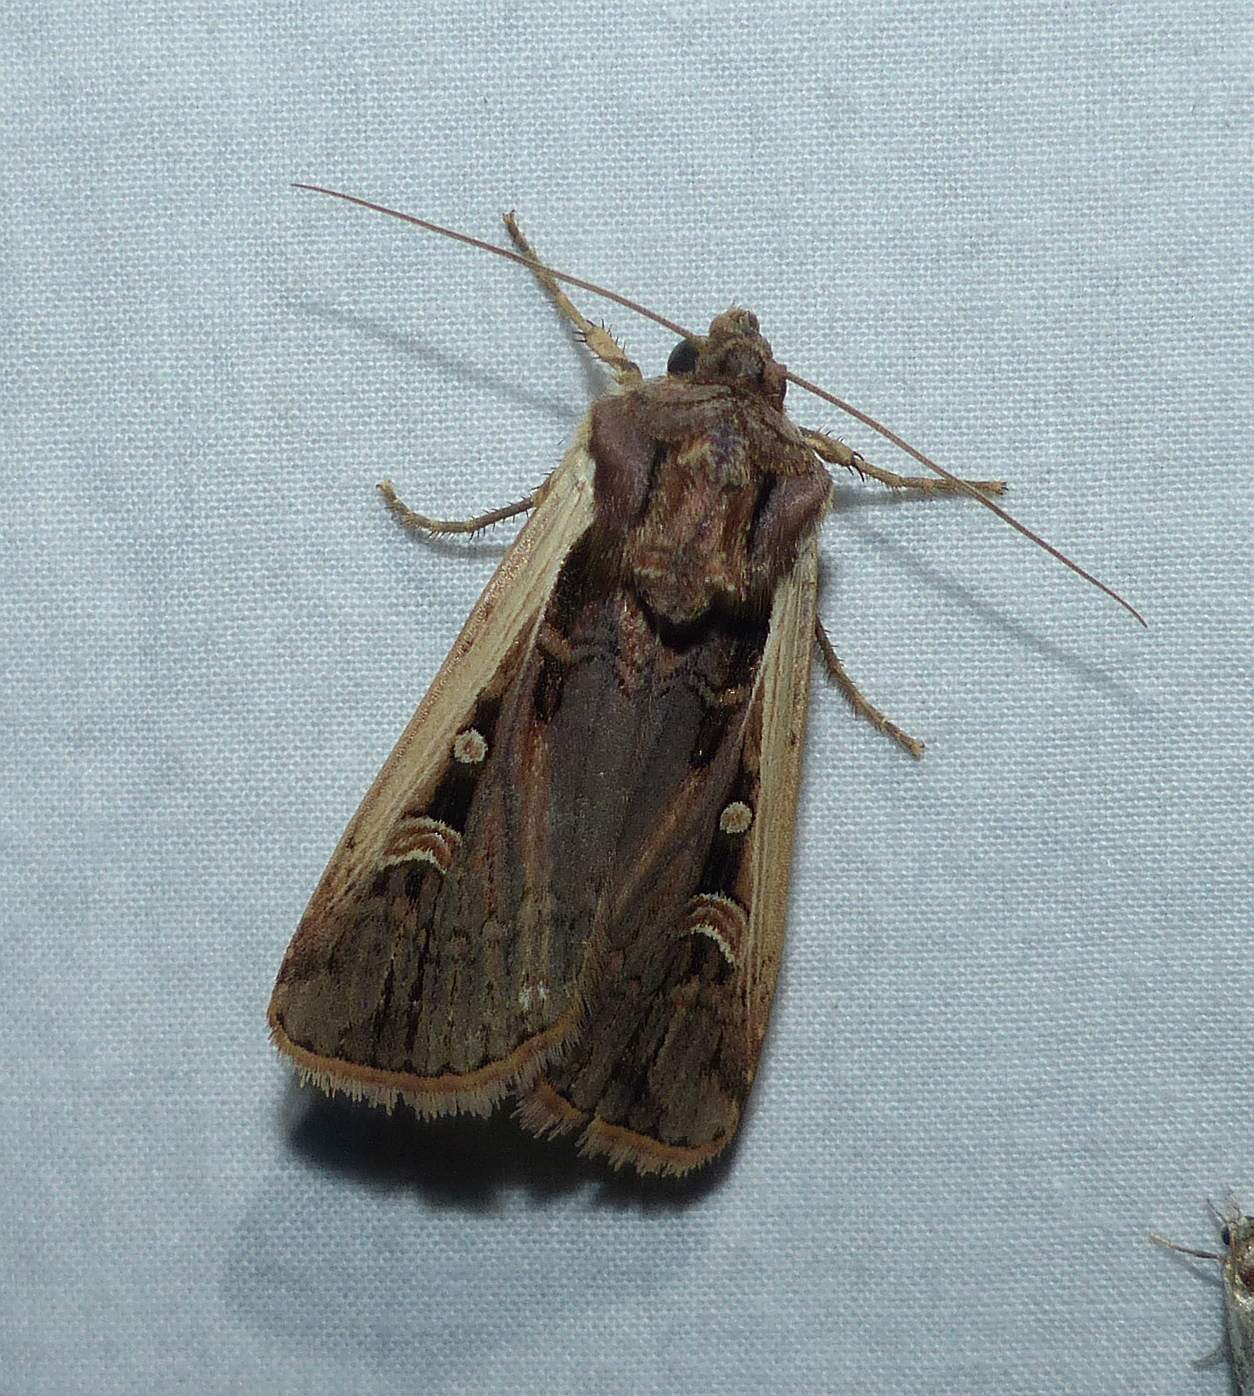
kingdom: Animalia
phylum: Arthropoda
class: Insecta
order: Lepidoptera
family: Noctuidae
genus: Striacosta
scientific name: Striacosta albicosta
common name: Western bean cutworm moth
